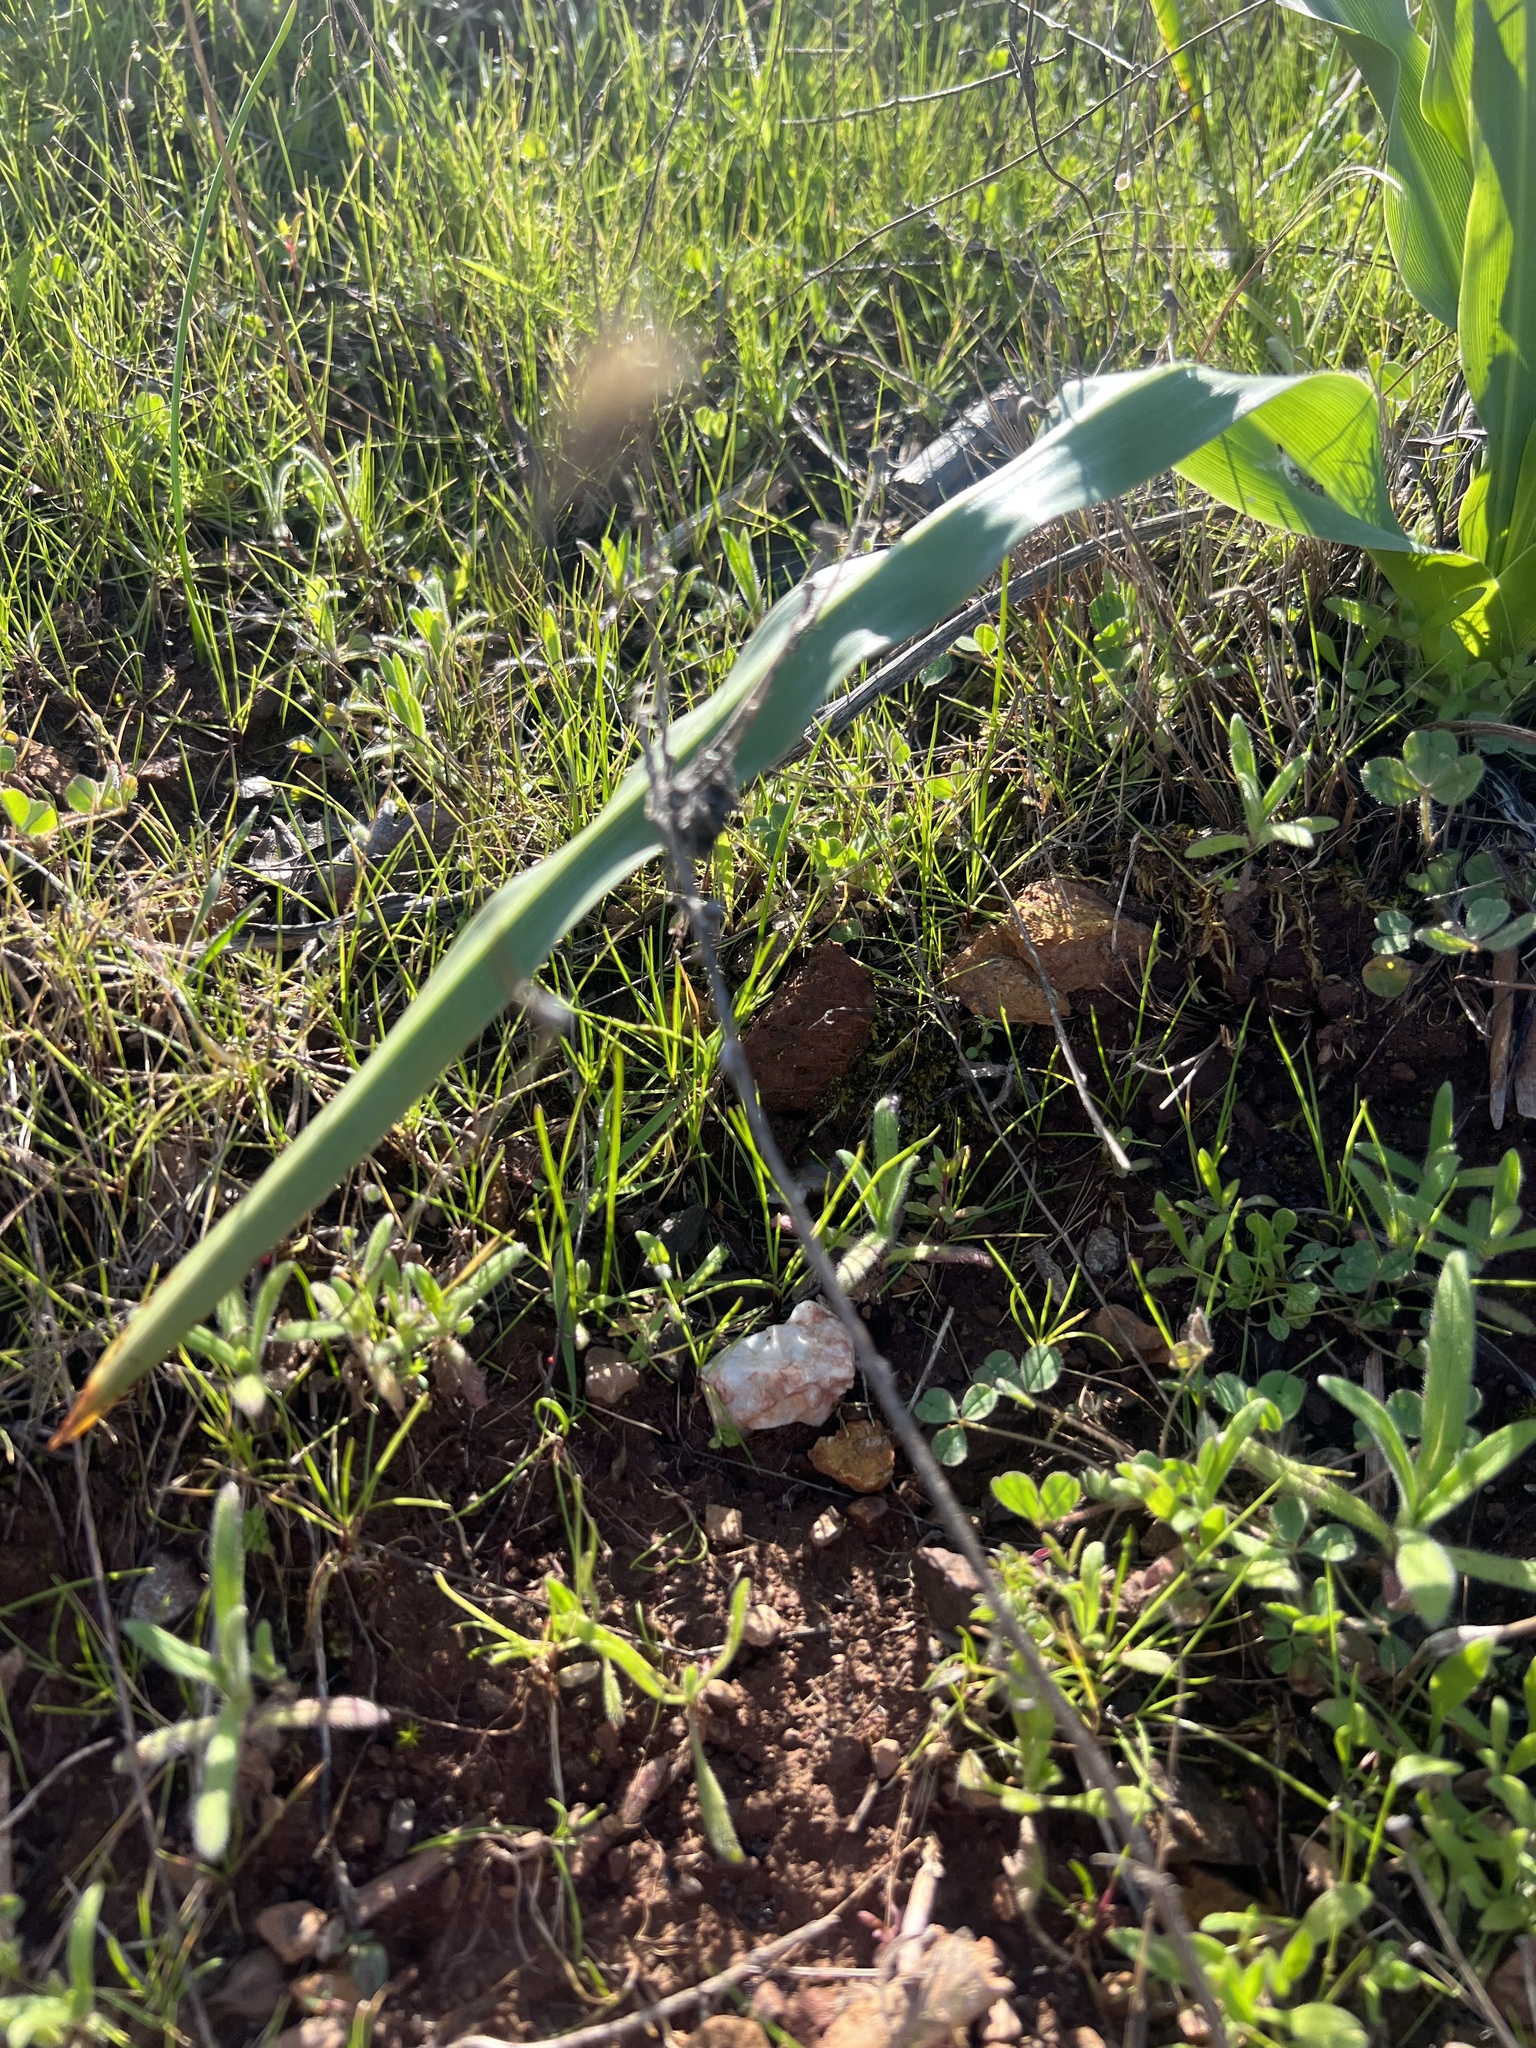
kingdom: Plantae
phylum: Tracheophyta
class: Liliopsida
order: Asparagales
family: Asparagaceae
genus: Chlorogalum
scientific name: Chlorogalum pomeridianum
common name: Amole
